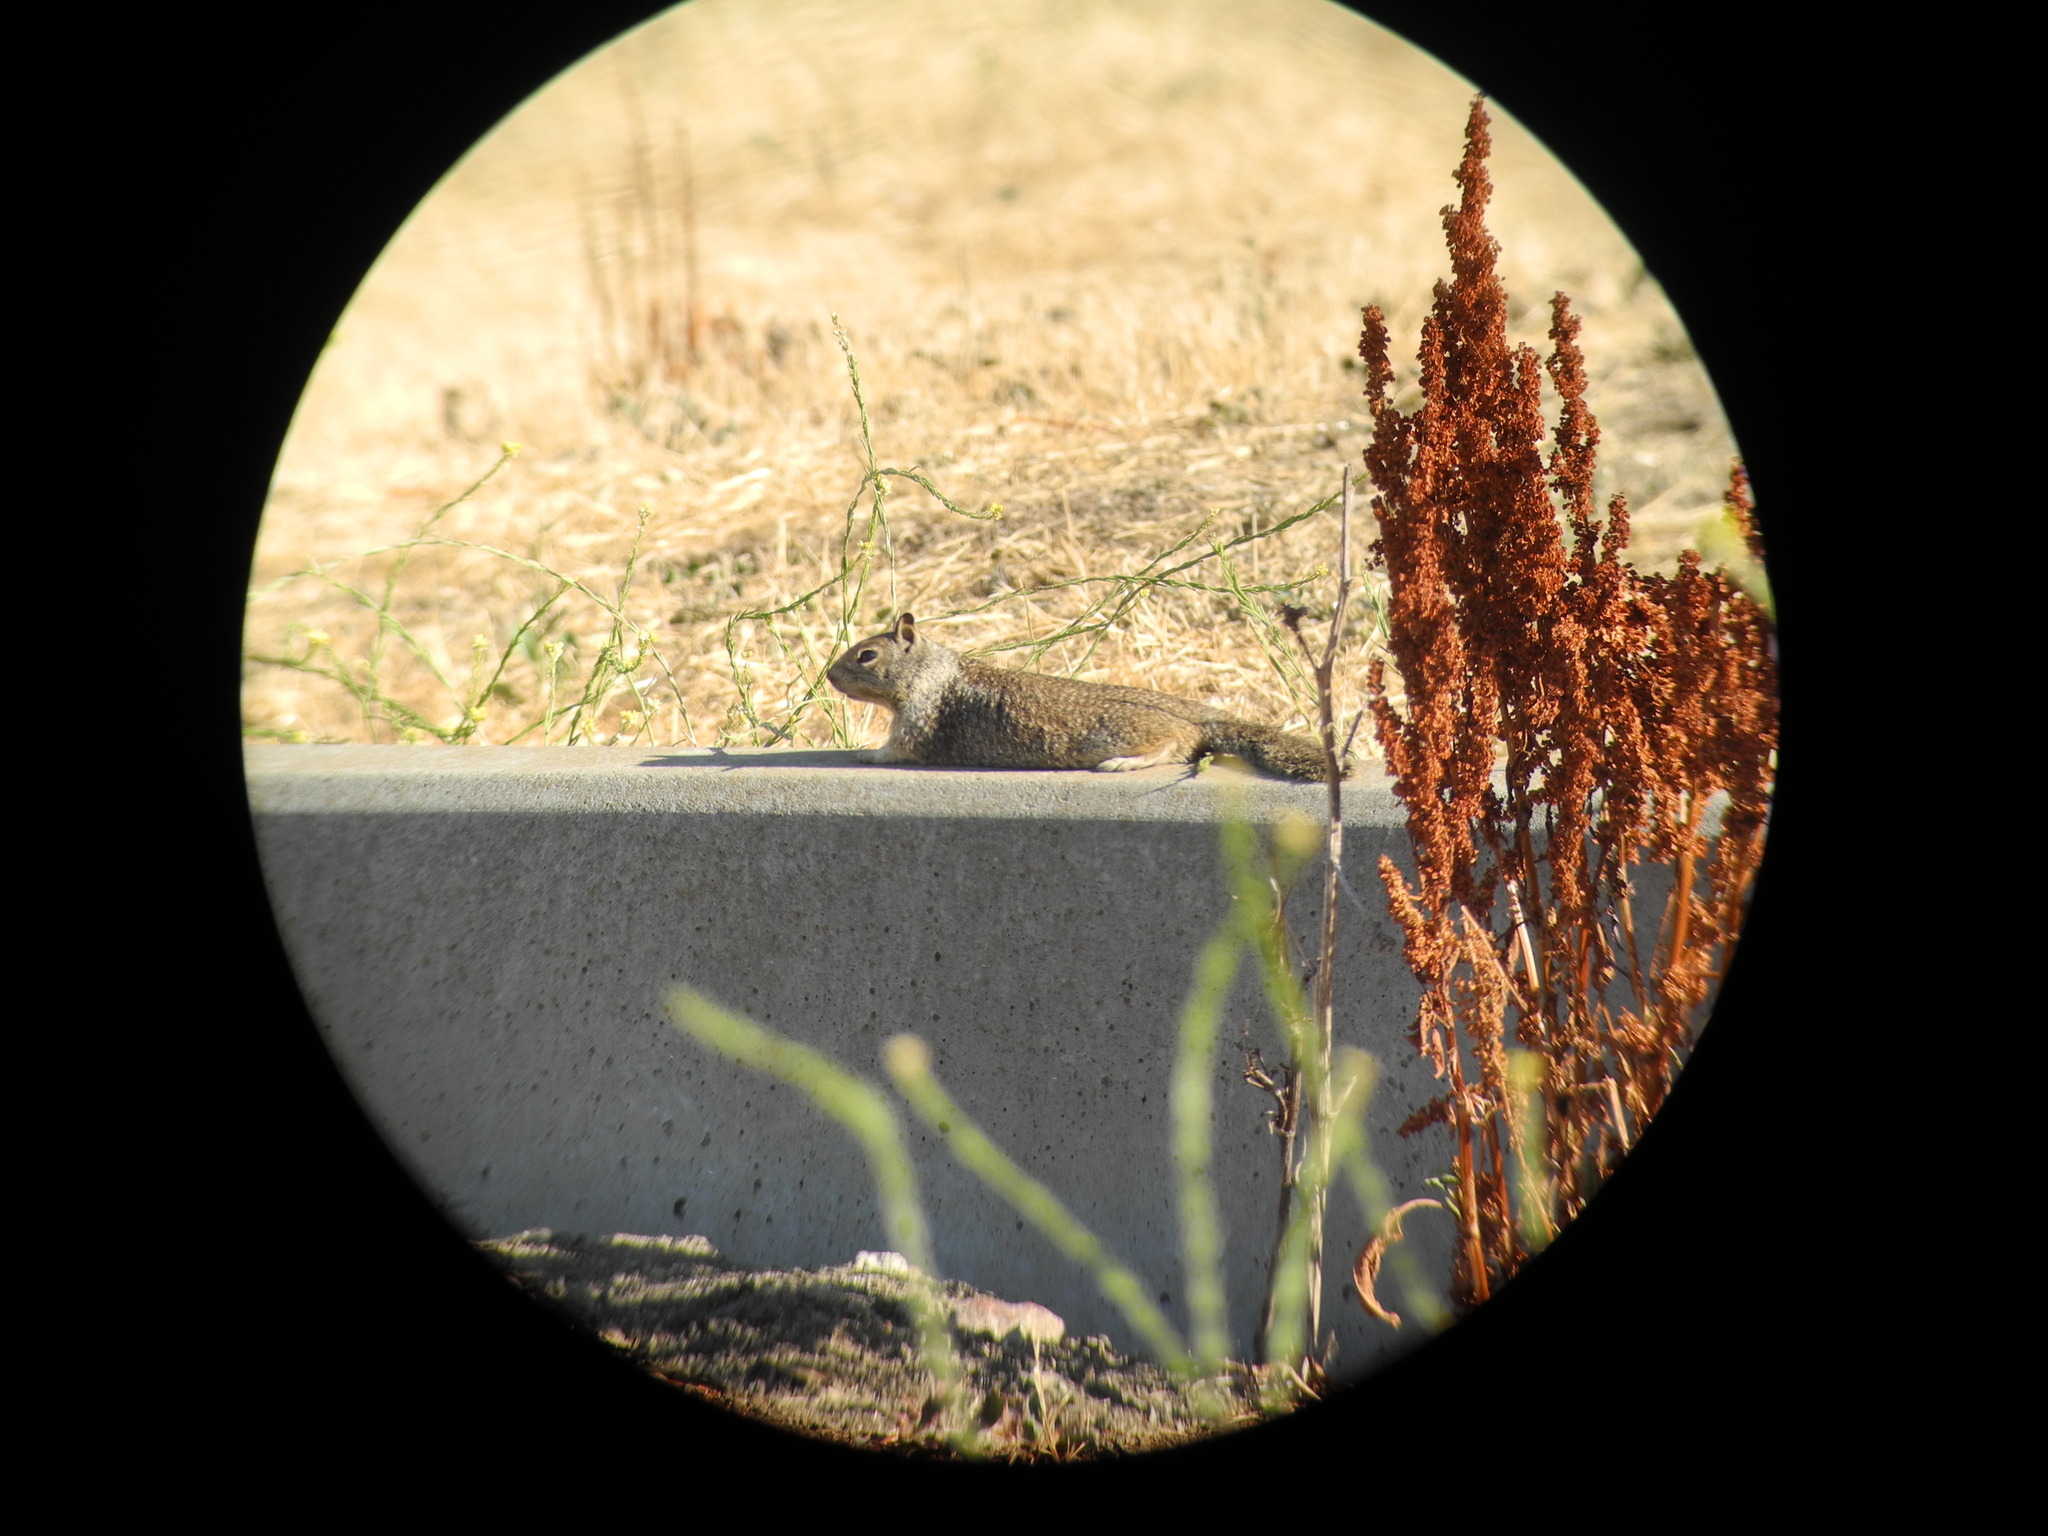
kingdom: Animalia
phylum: Chordata
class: Mammalia
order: Rodentia
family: Sciuridae
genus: Otospermophilus
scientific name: Otospermophilus beecheyi
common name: California ground squirrel
